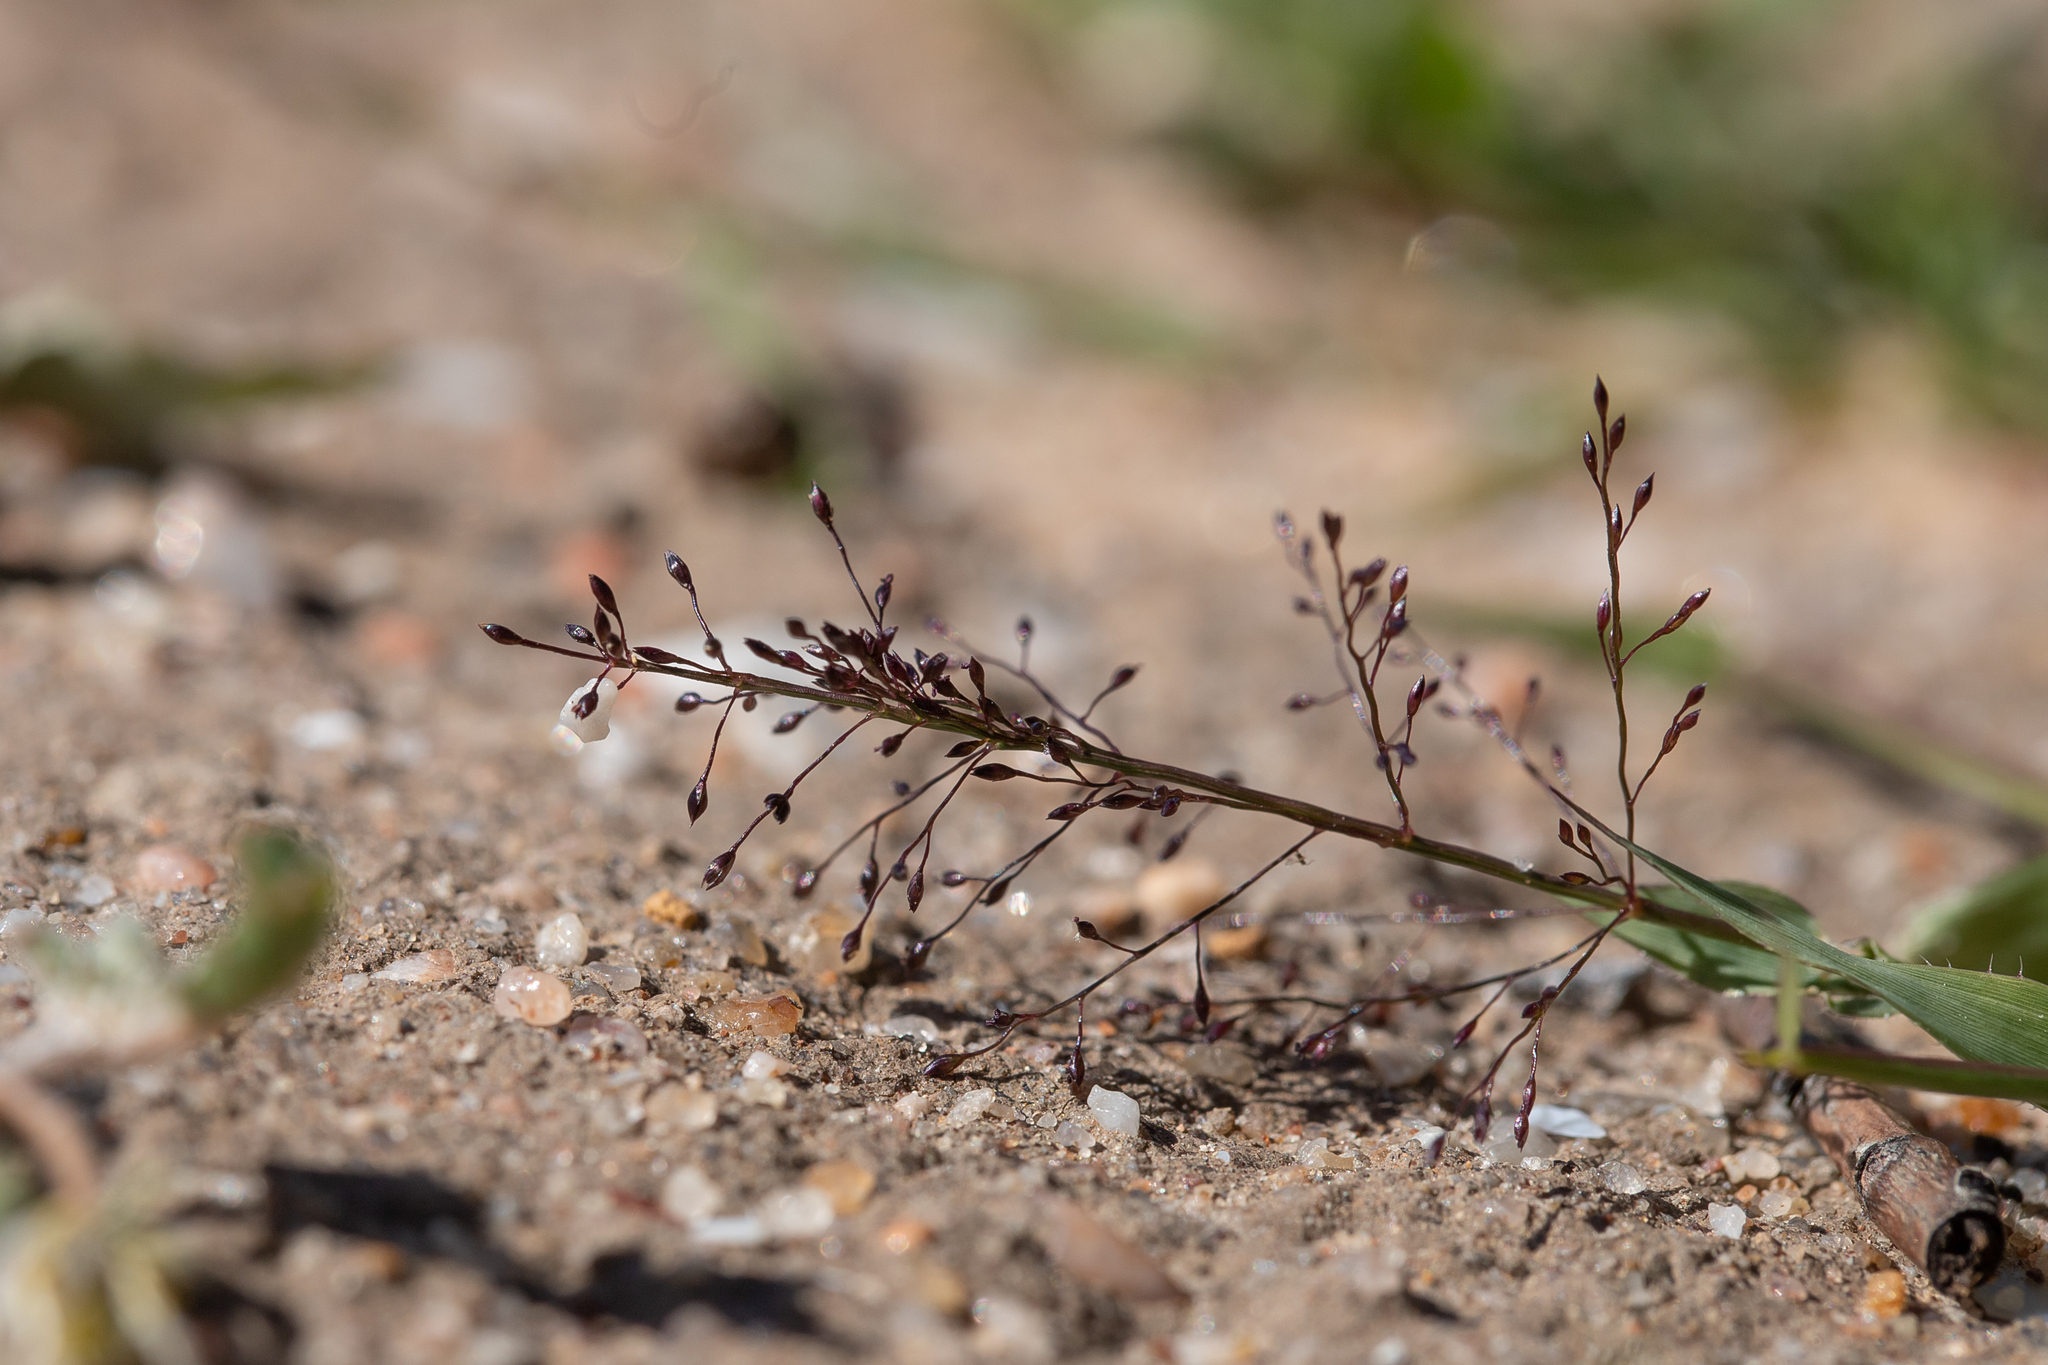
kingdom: Plantae
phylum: Tracheophyta
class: Liliopsida
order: Poales
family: Poaceae
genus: Sporobolus
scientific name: Sporobolus australasicus
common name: Australian dropseed
